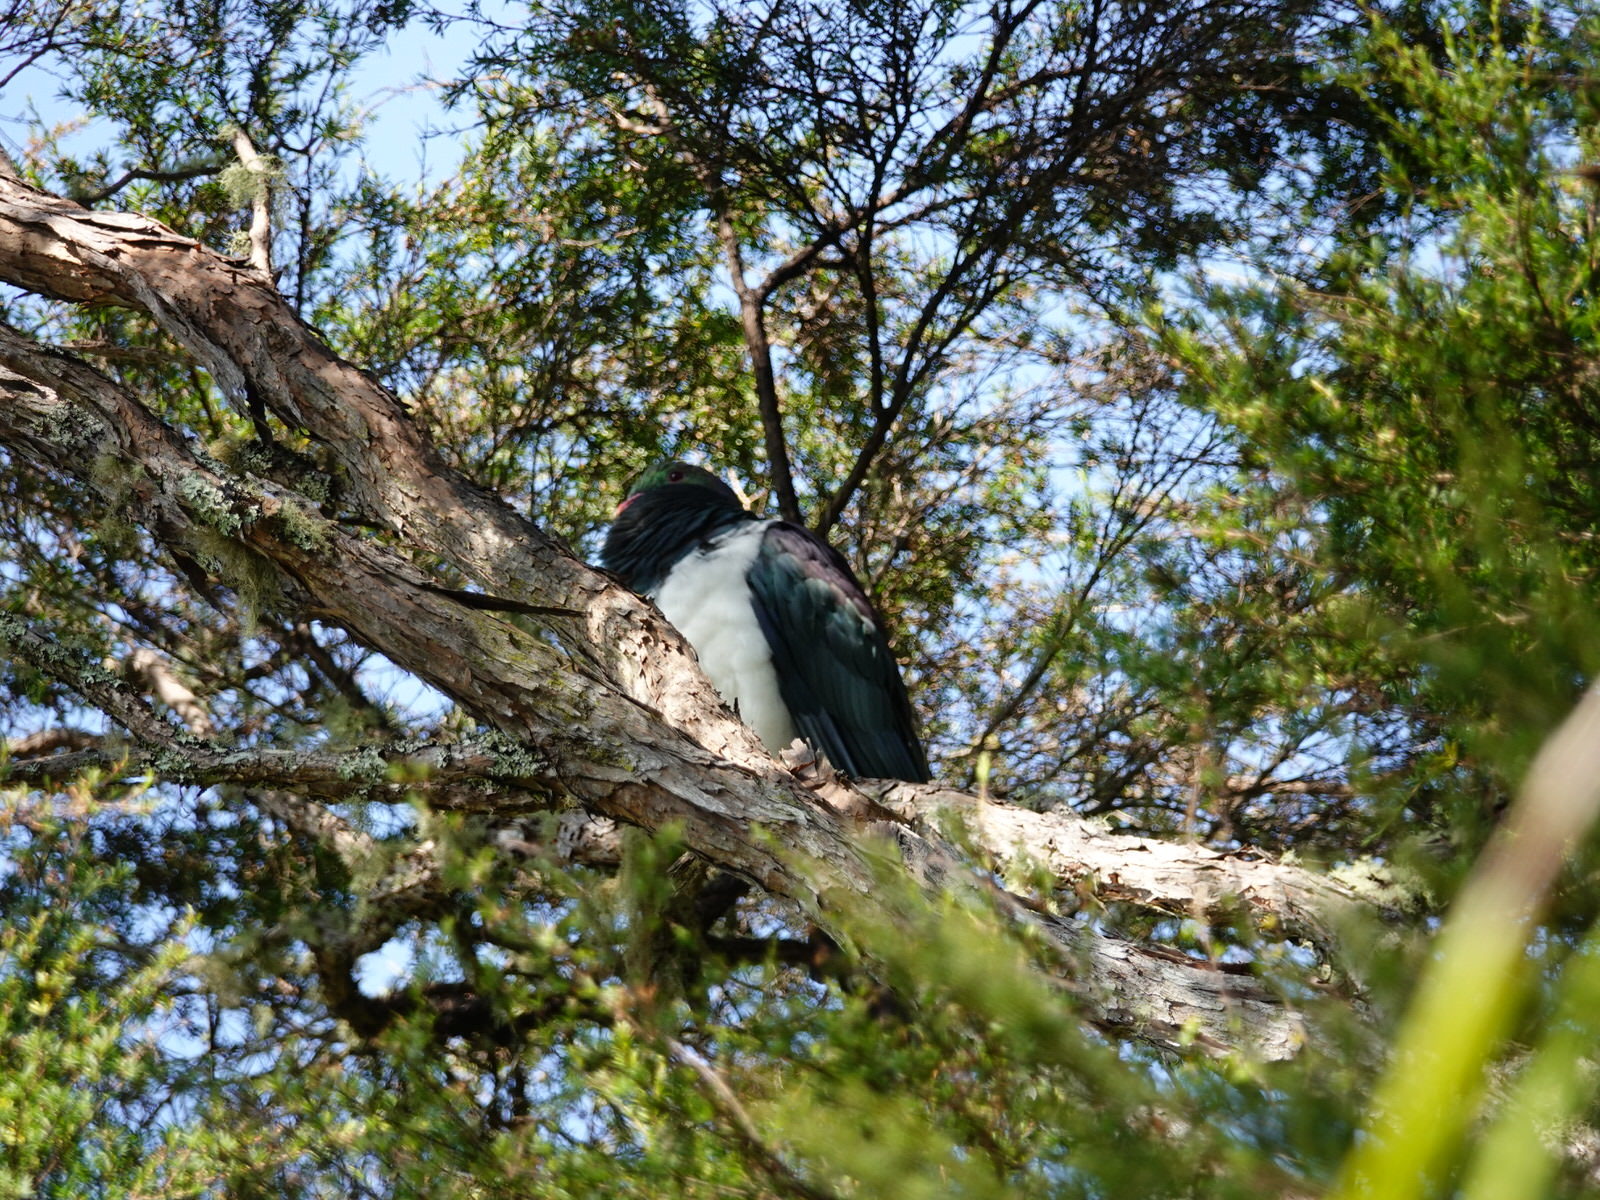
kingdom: Animalia
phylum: Chordata
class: Aves
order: Columbiformes
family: Columbidae
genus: Hemiphaga
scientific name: Hemiphaga novaeseelandiae
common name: New zealand pigeon
